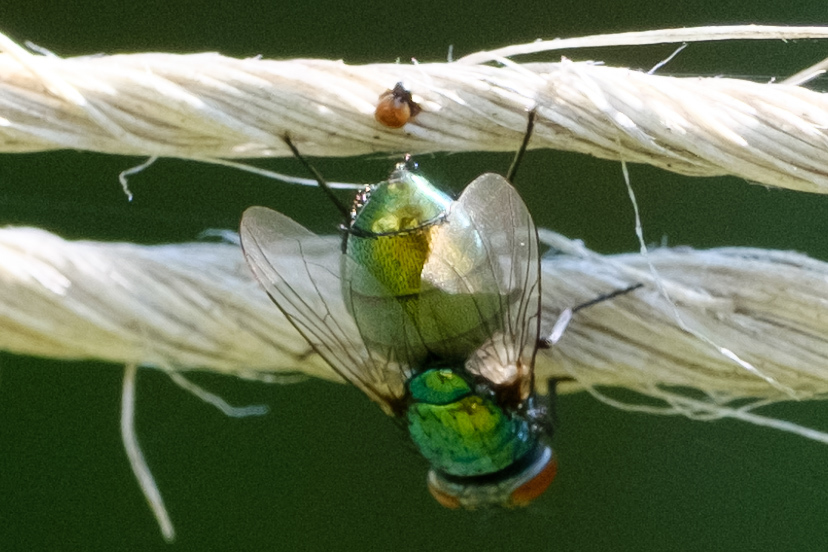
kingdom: Animalia
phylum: Arthropoda
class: Insecta
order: Diptera
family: Calliphoridae
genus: Lucilia
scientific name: Lucilia sericata
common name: Blow fly
